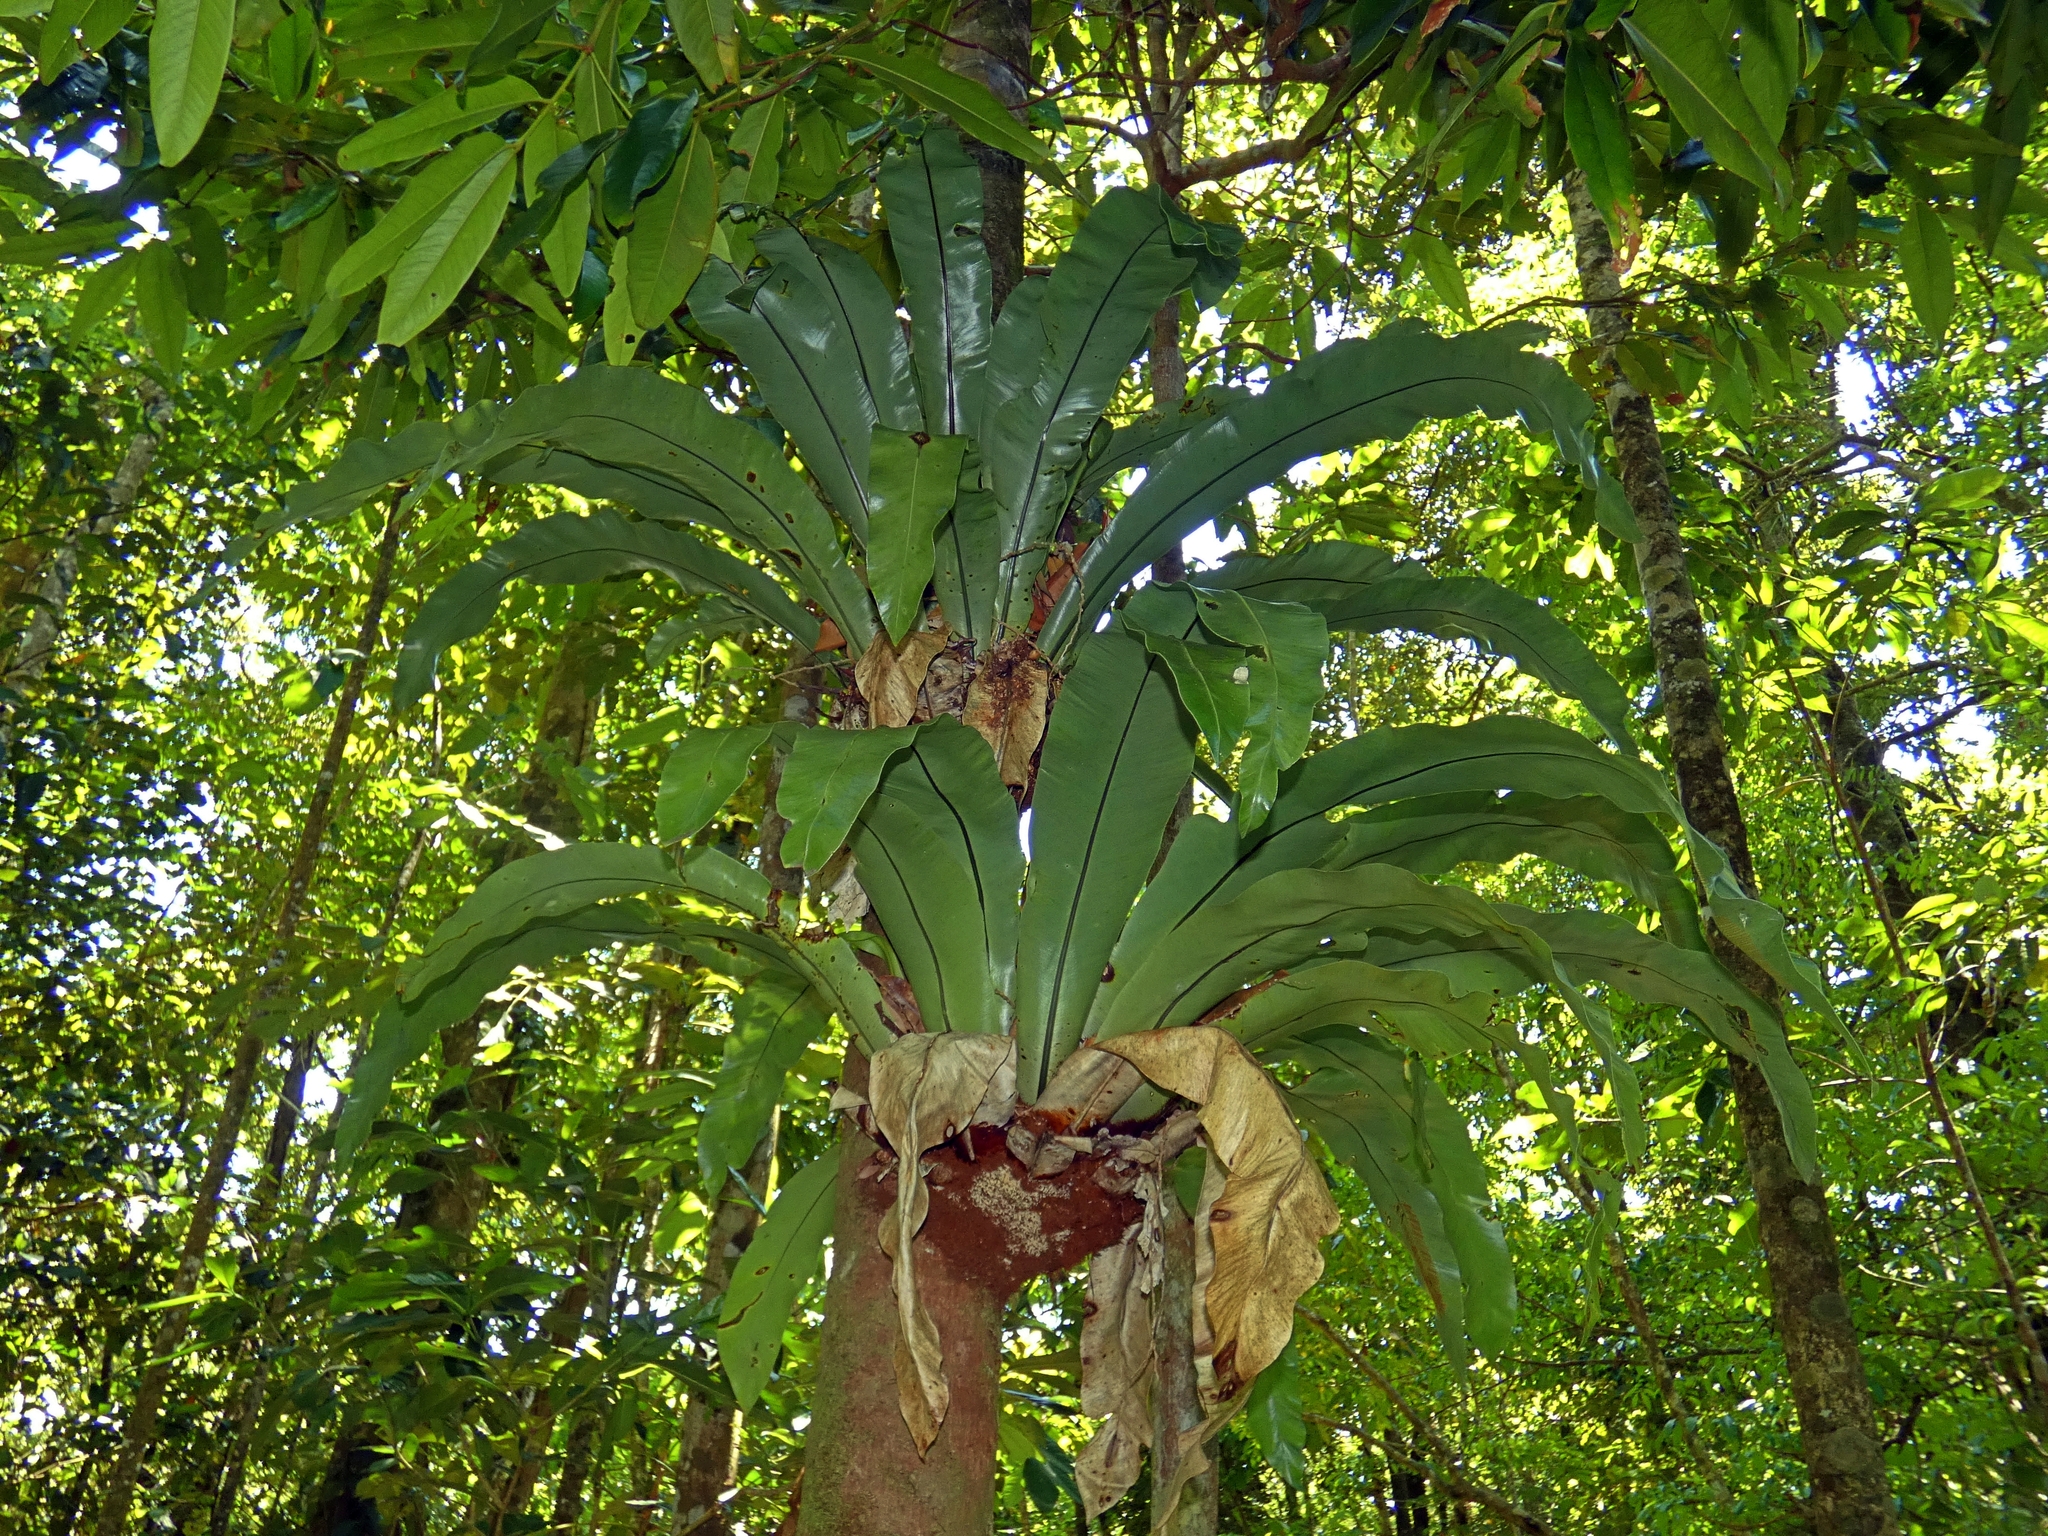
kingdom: Plantae
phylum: Tracheophyta
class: Polypodiopsida
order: Polypodiales
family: Aspleniaceae
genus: Asplenium
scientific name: Asplenium nidus
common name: Bird's-nest fern
